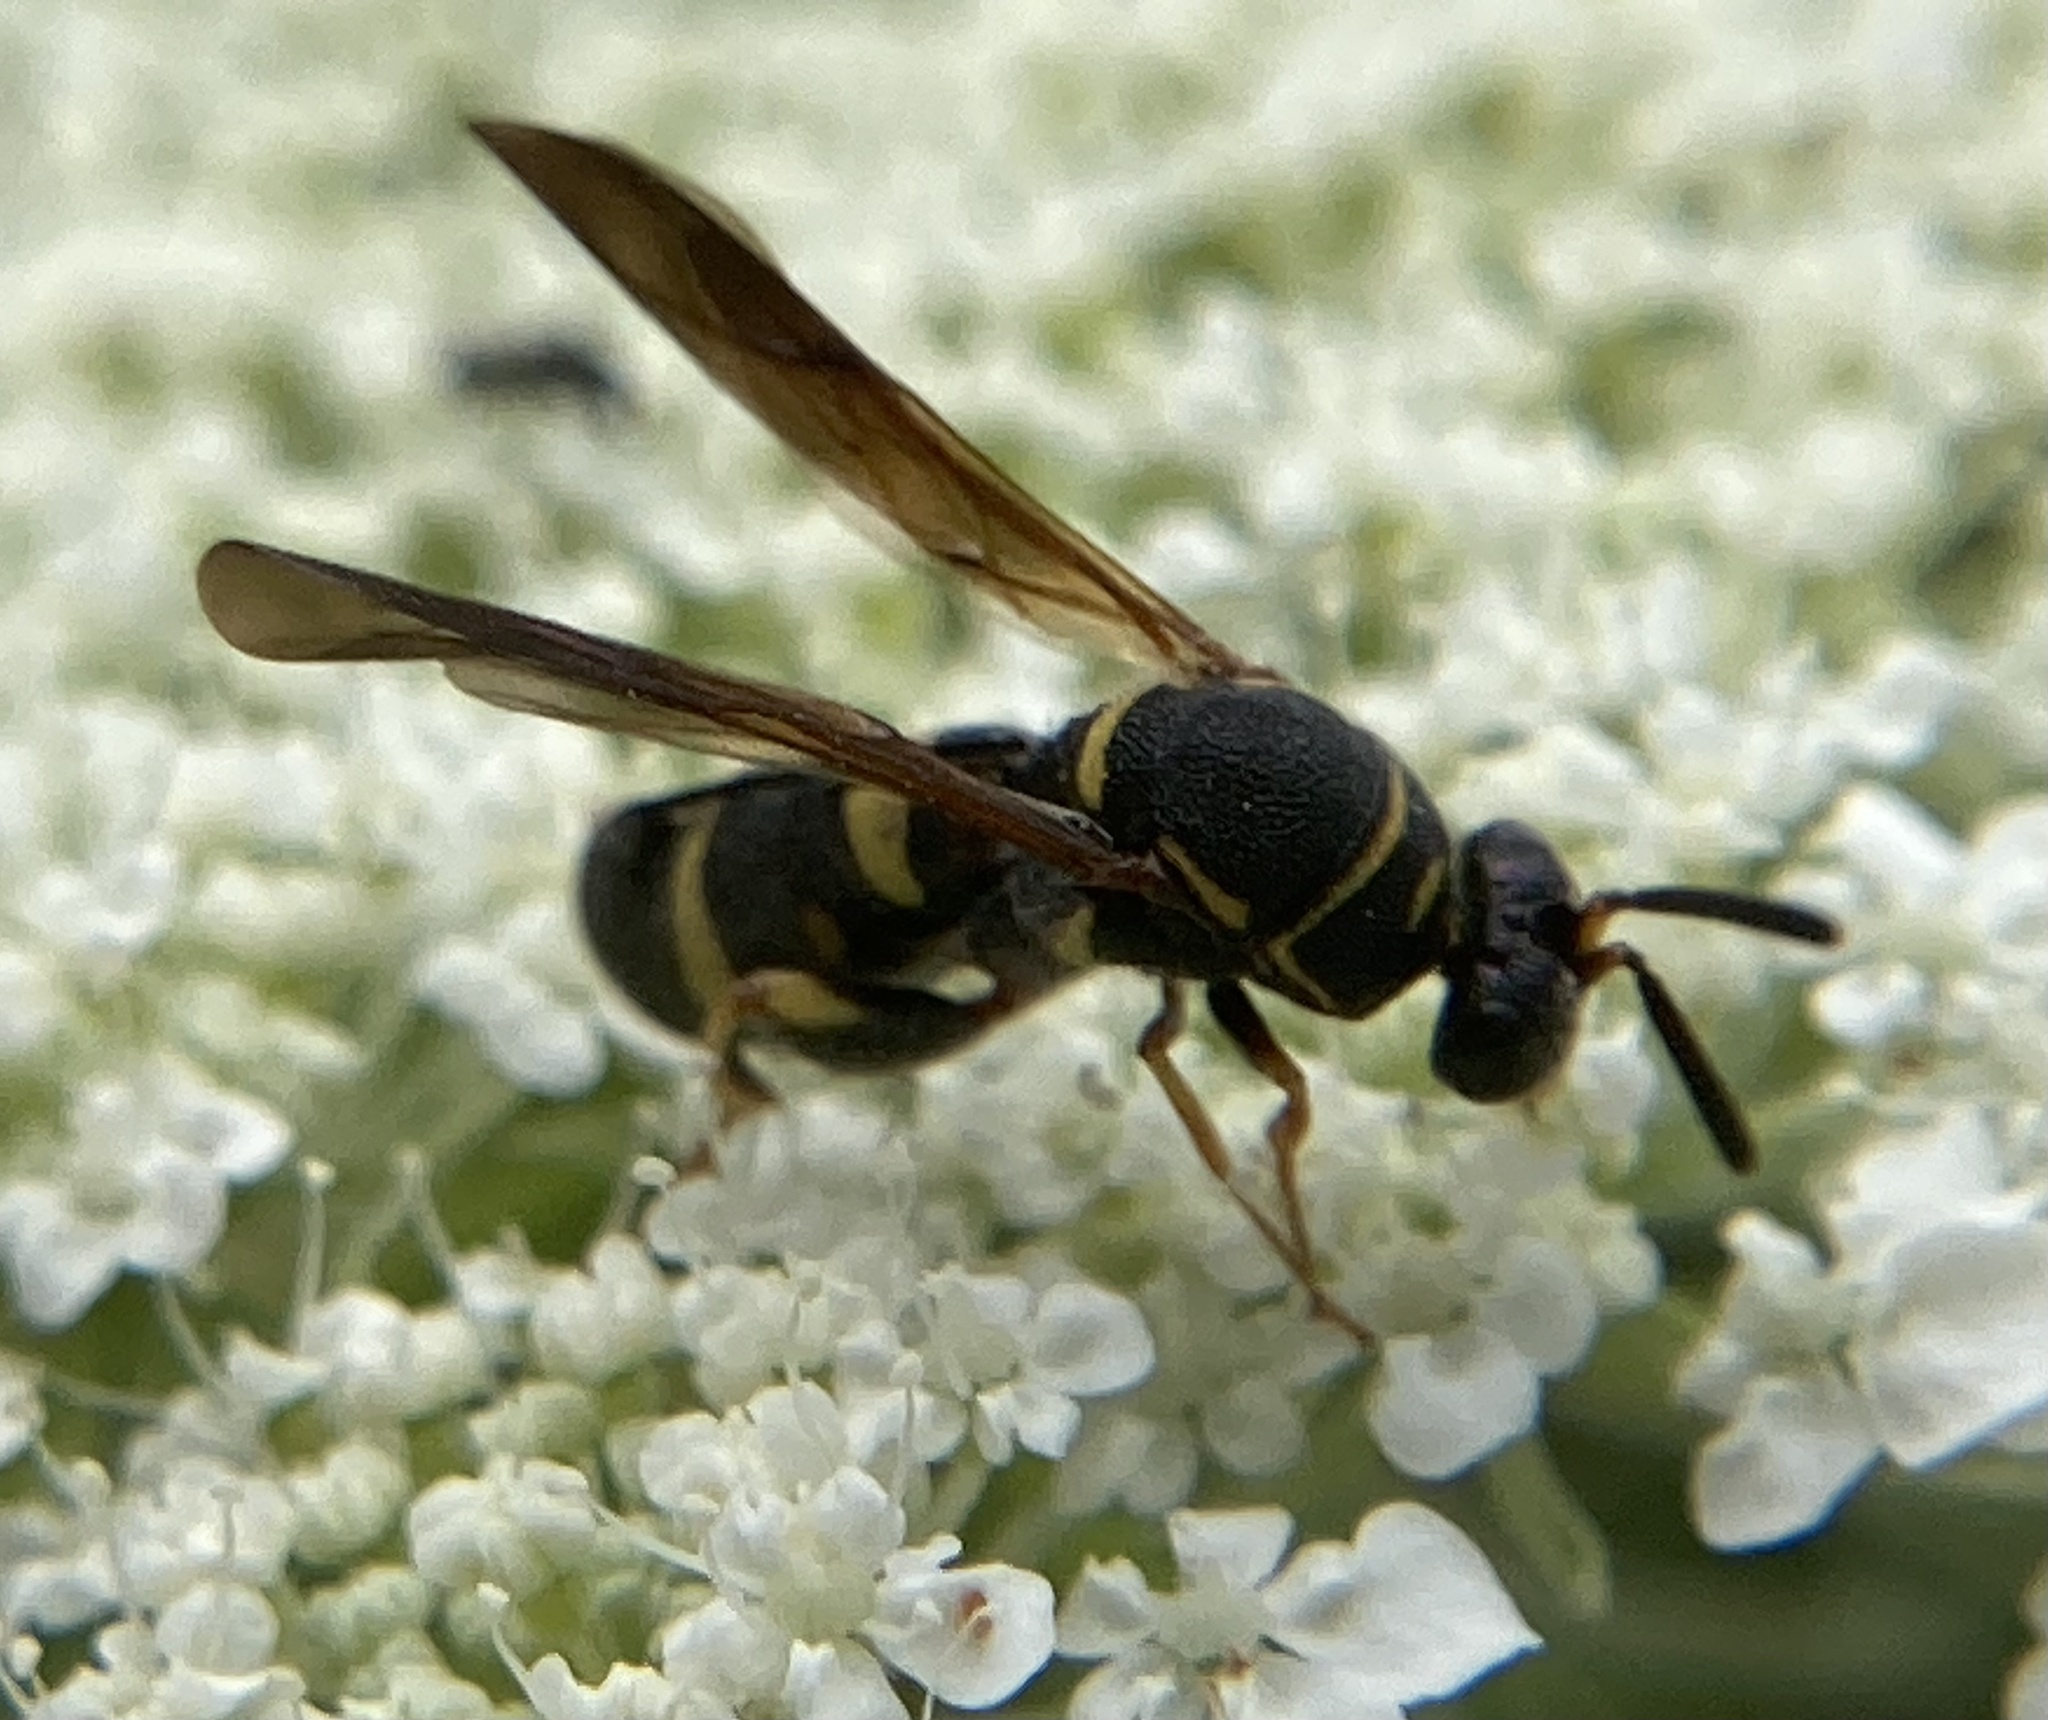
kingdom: Animalia
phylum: Arthropoda
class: Insecta
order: Hymenoptera
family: Leucospidae
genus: Leucospis
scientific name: Leucospis affinis
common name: Wasp
